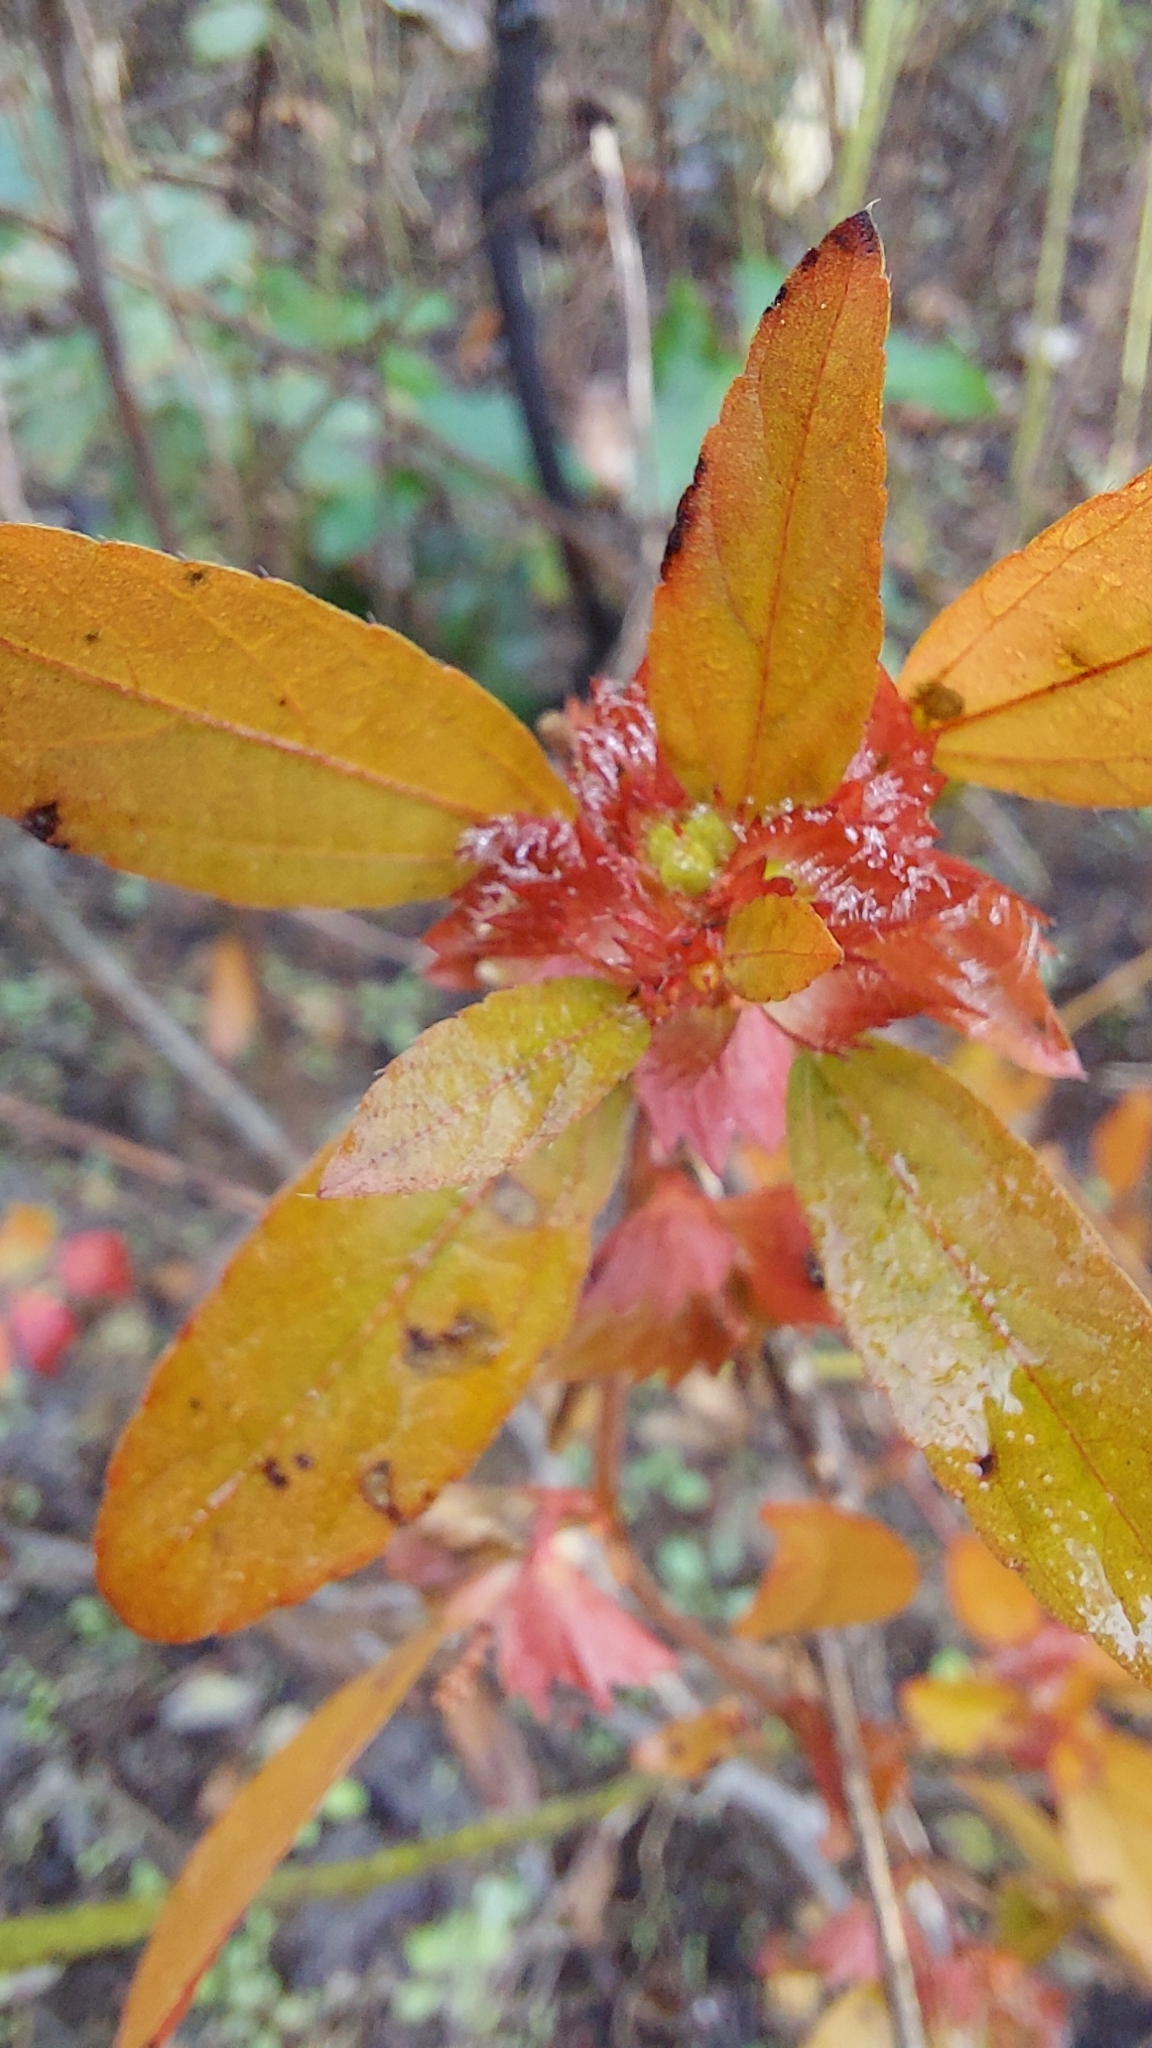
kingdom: Plantae
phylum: Tracheophyta
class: Magnoliopsida
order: Malpighiales
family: Euphorbiaceae
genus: Acalypha
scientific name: Acalypha gracilens
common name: Slender three-seeded mercury
